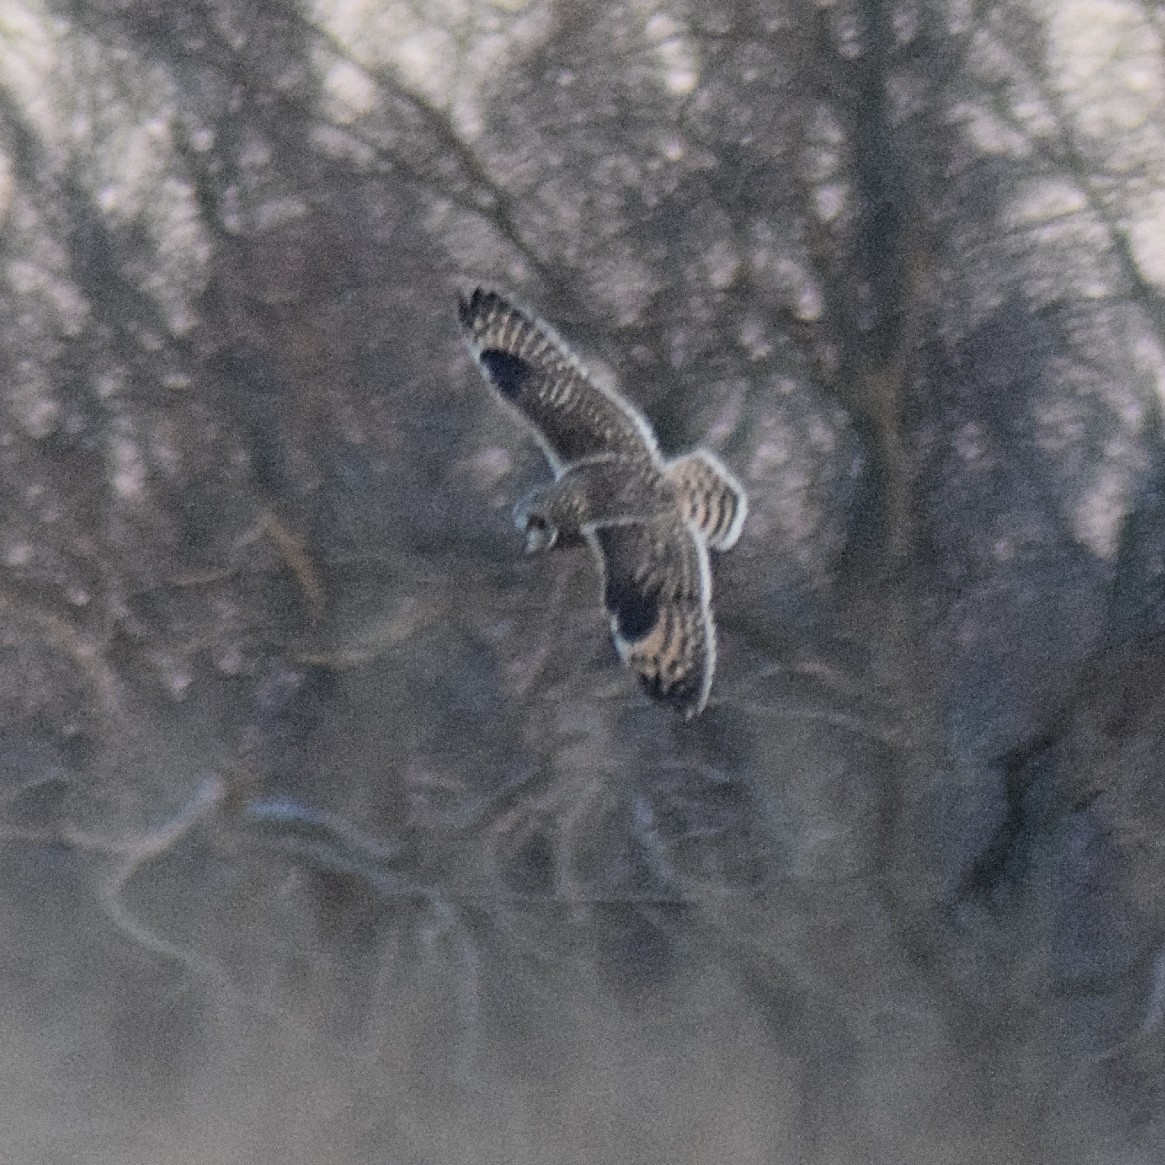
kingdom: Animalia
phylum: Chordata
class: Aves
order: Strigiformes
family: Strigidae
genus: Asio
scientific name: Asio flammeus
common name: Short-eared owl
